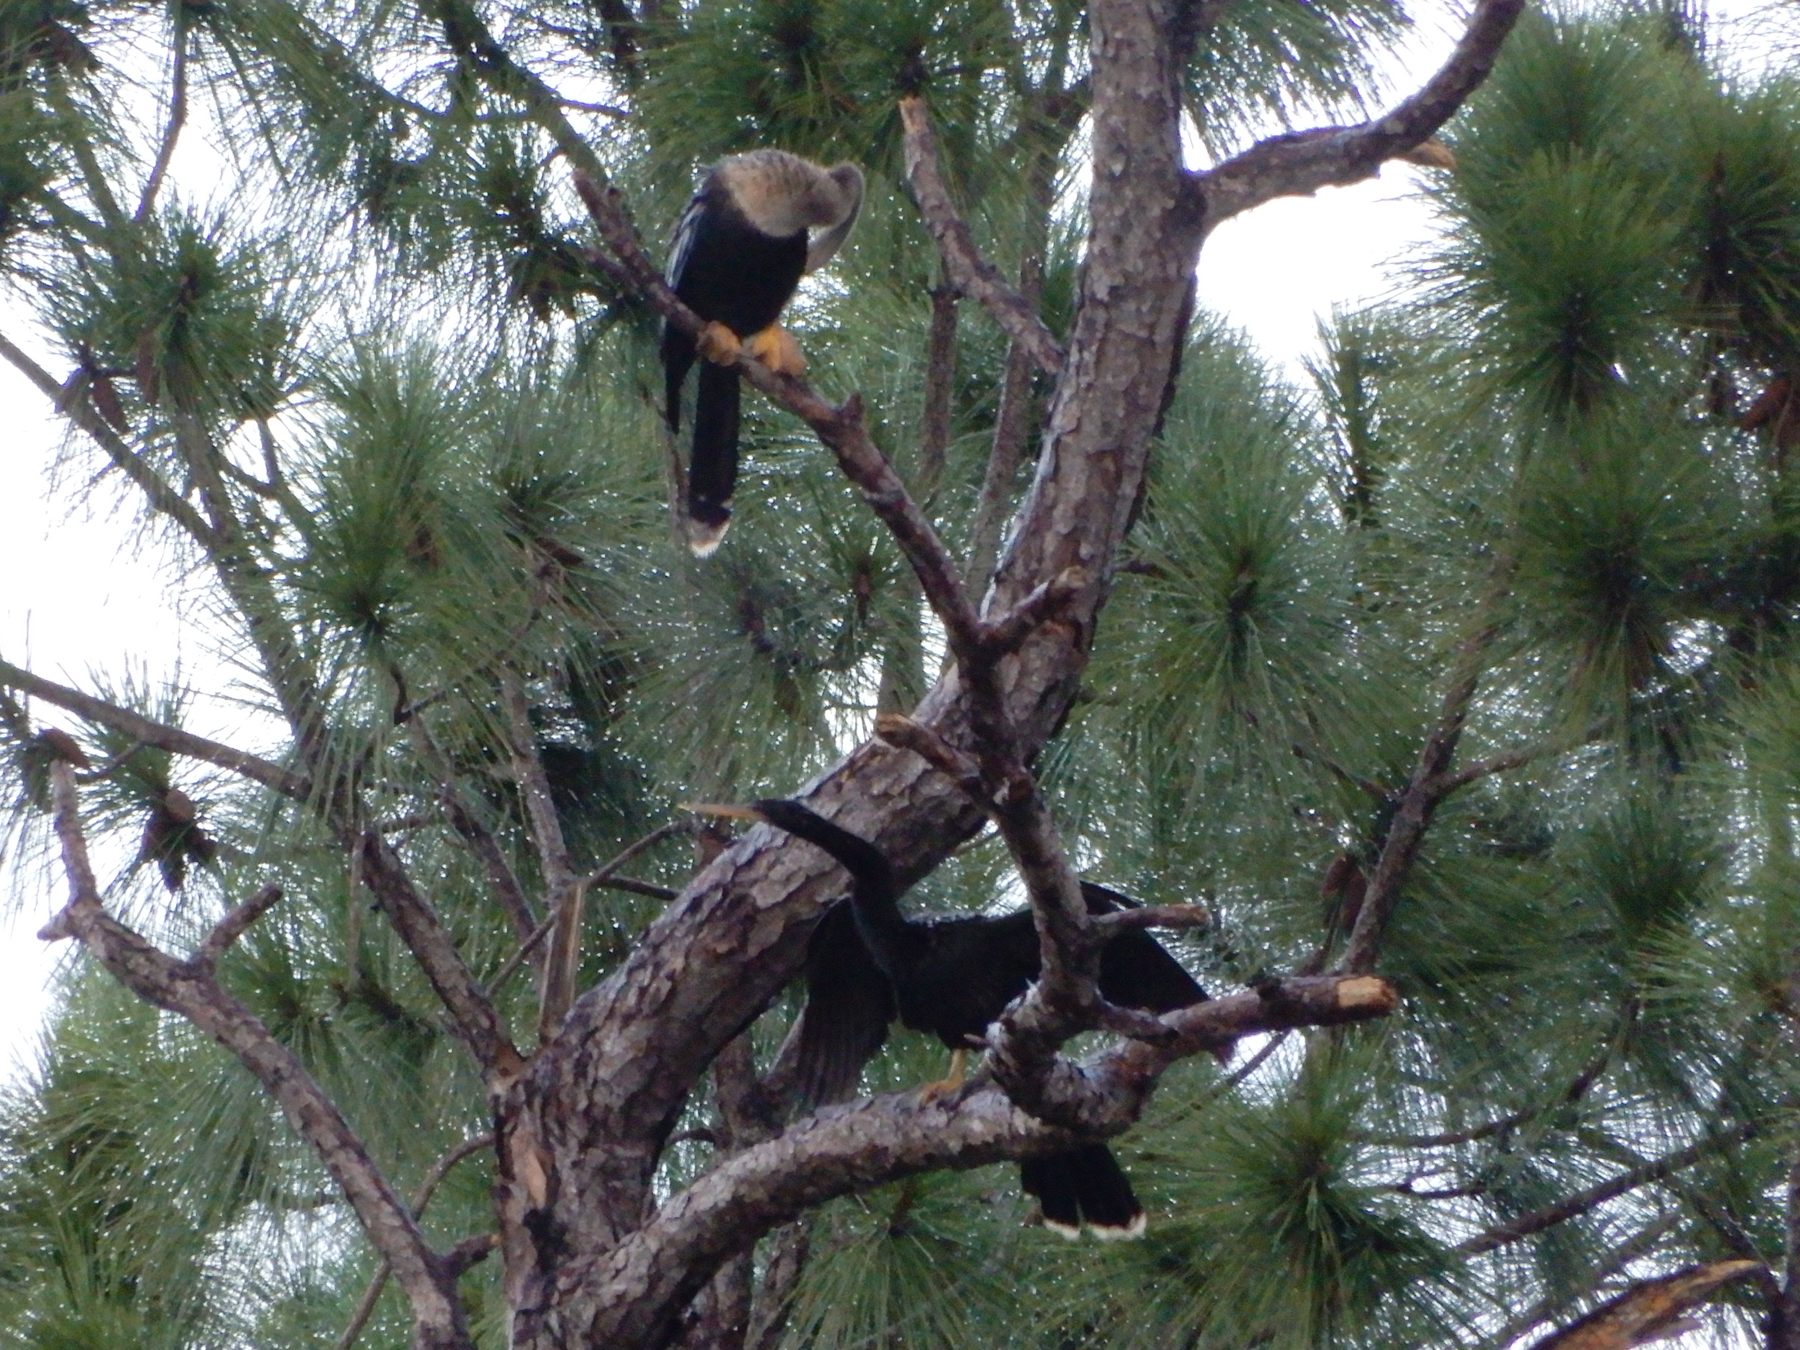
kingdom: Animalia
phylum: Chordata
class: Aves
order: Suliformes
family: Anhingidae
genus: Anhinga
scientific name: Anhinga anhinga
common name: Anhinga
